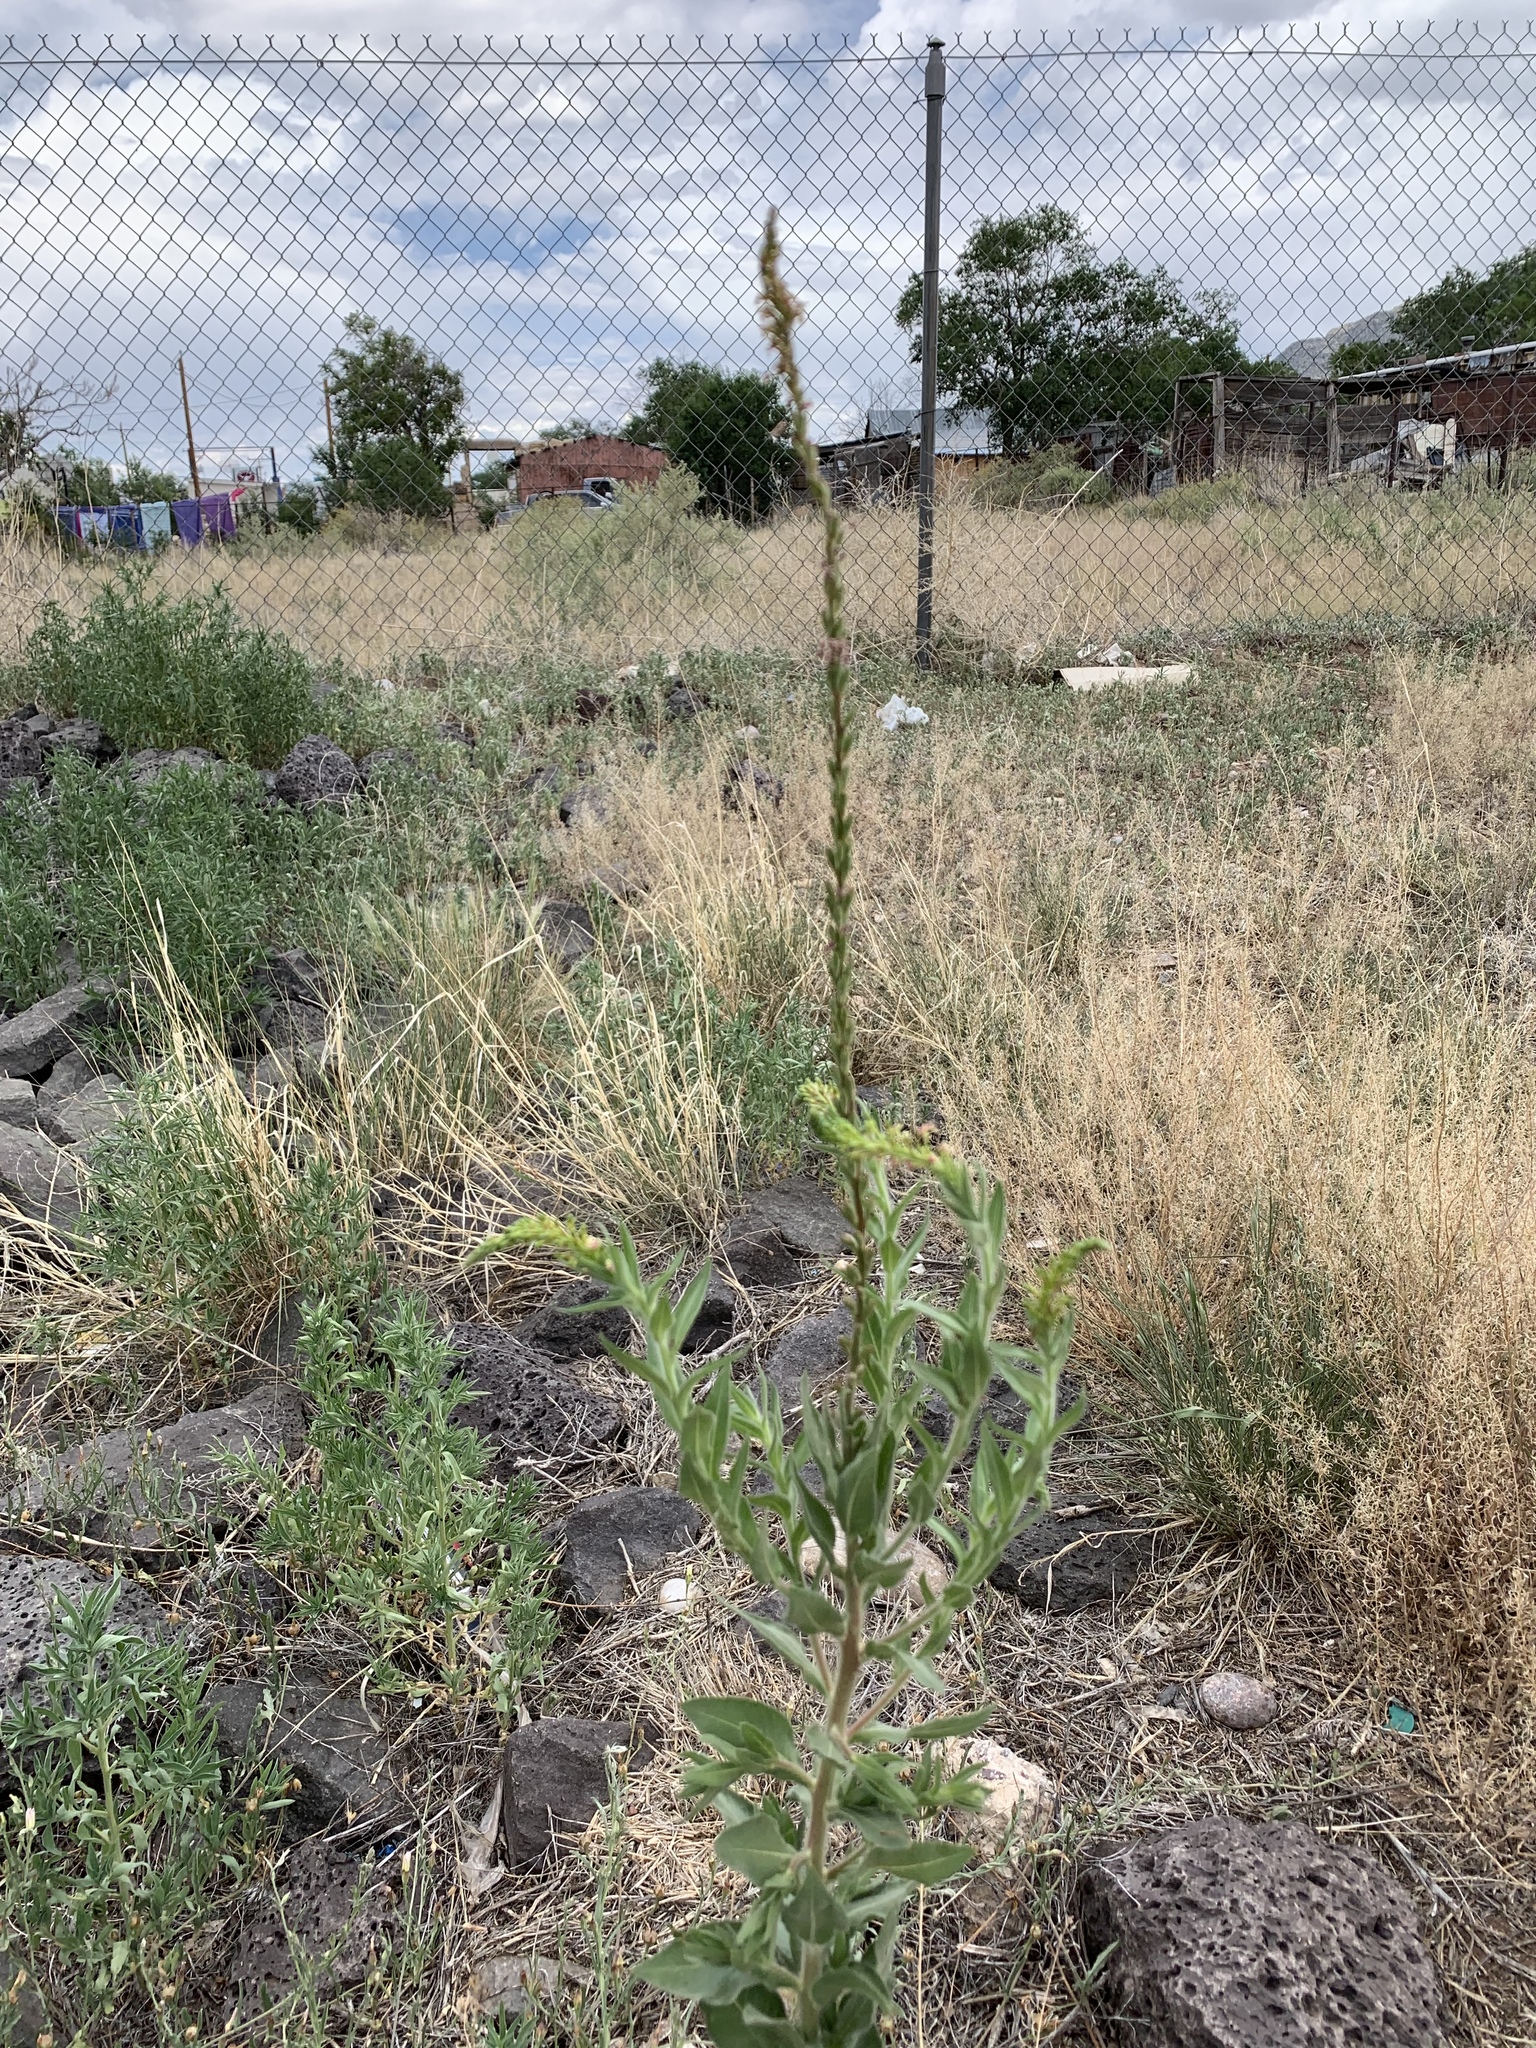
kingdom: Plantae
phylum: Tracheophyta
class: Magnoliopsida
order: Myrtales
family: Onagraceae
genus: Oenothera
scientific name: Oenothera curtiflora
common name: Velvetweed
